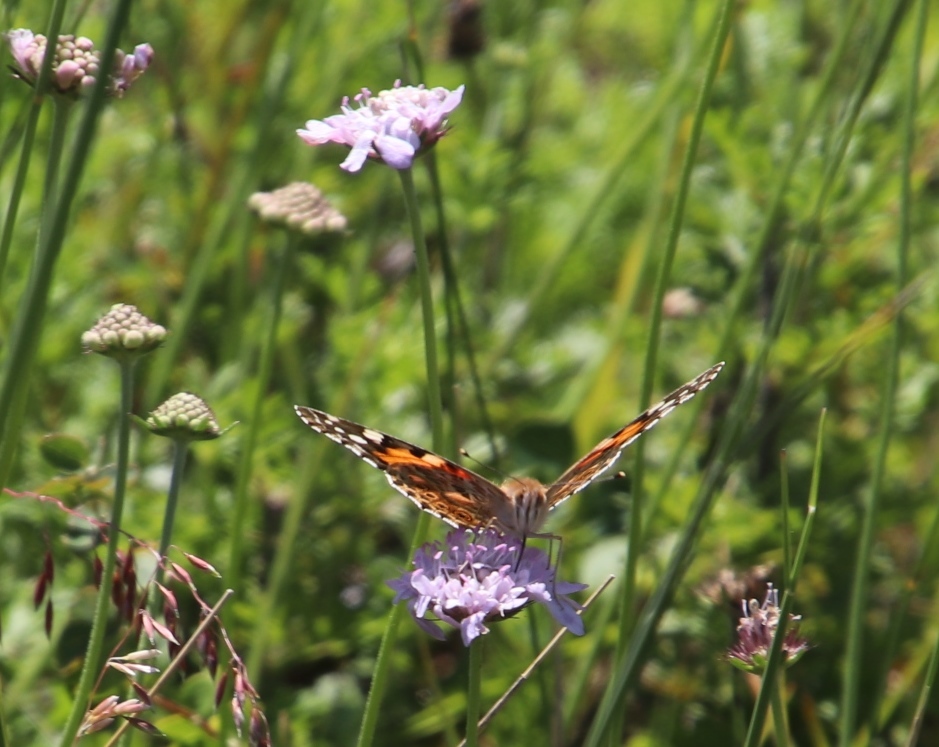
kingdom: Animalia
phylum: Arthropoda
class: Insecta
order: Lepidoptera
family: Nymphalidae
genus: Vanessa
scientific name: Vanessa cardui
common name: Painted lady
